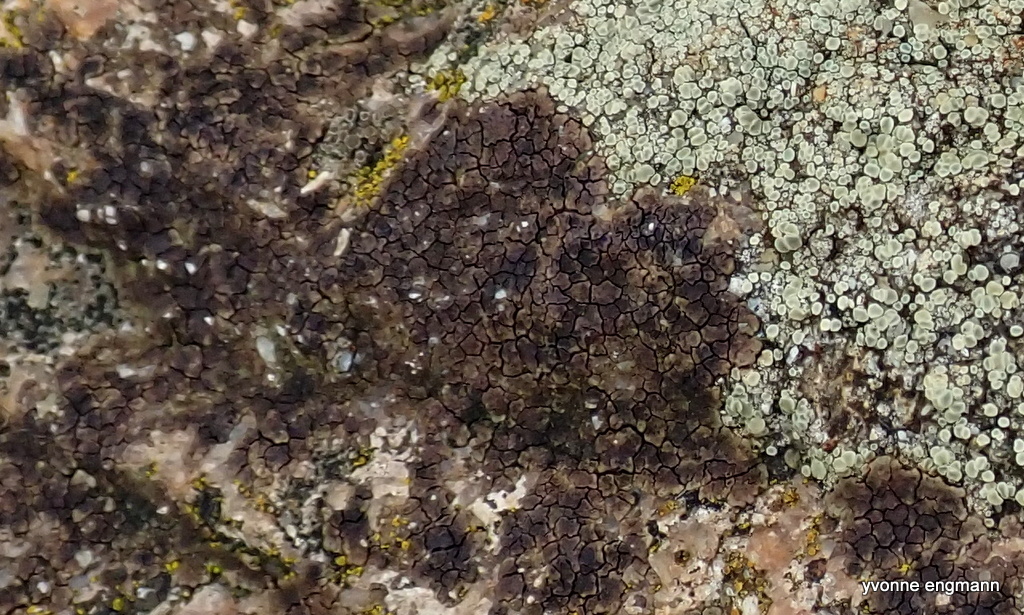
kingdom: Fungi
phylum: Ascomycota
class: Lecanoromycetes
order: Acarosporales
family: Acarosporaceae
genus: Acarospora
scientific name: Acarospora fuscata
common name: Brown cobblestone lichen
